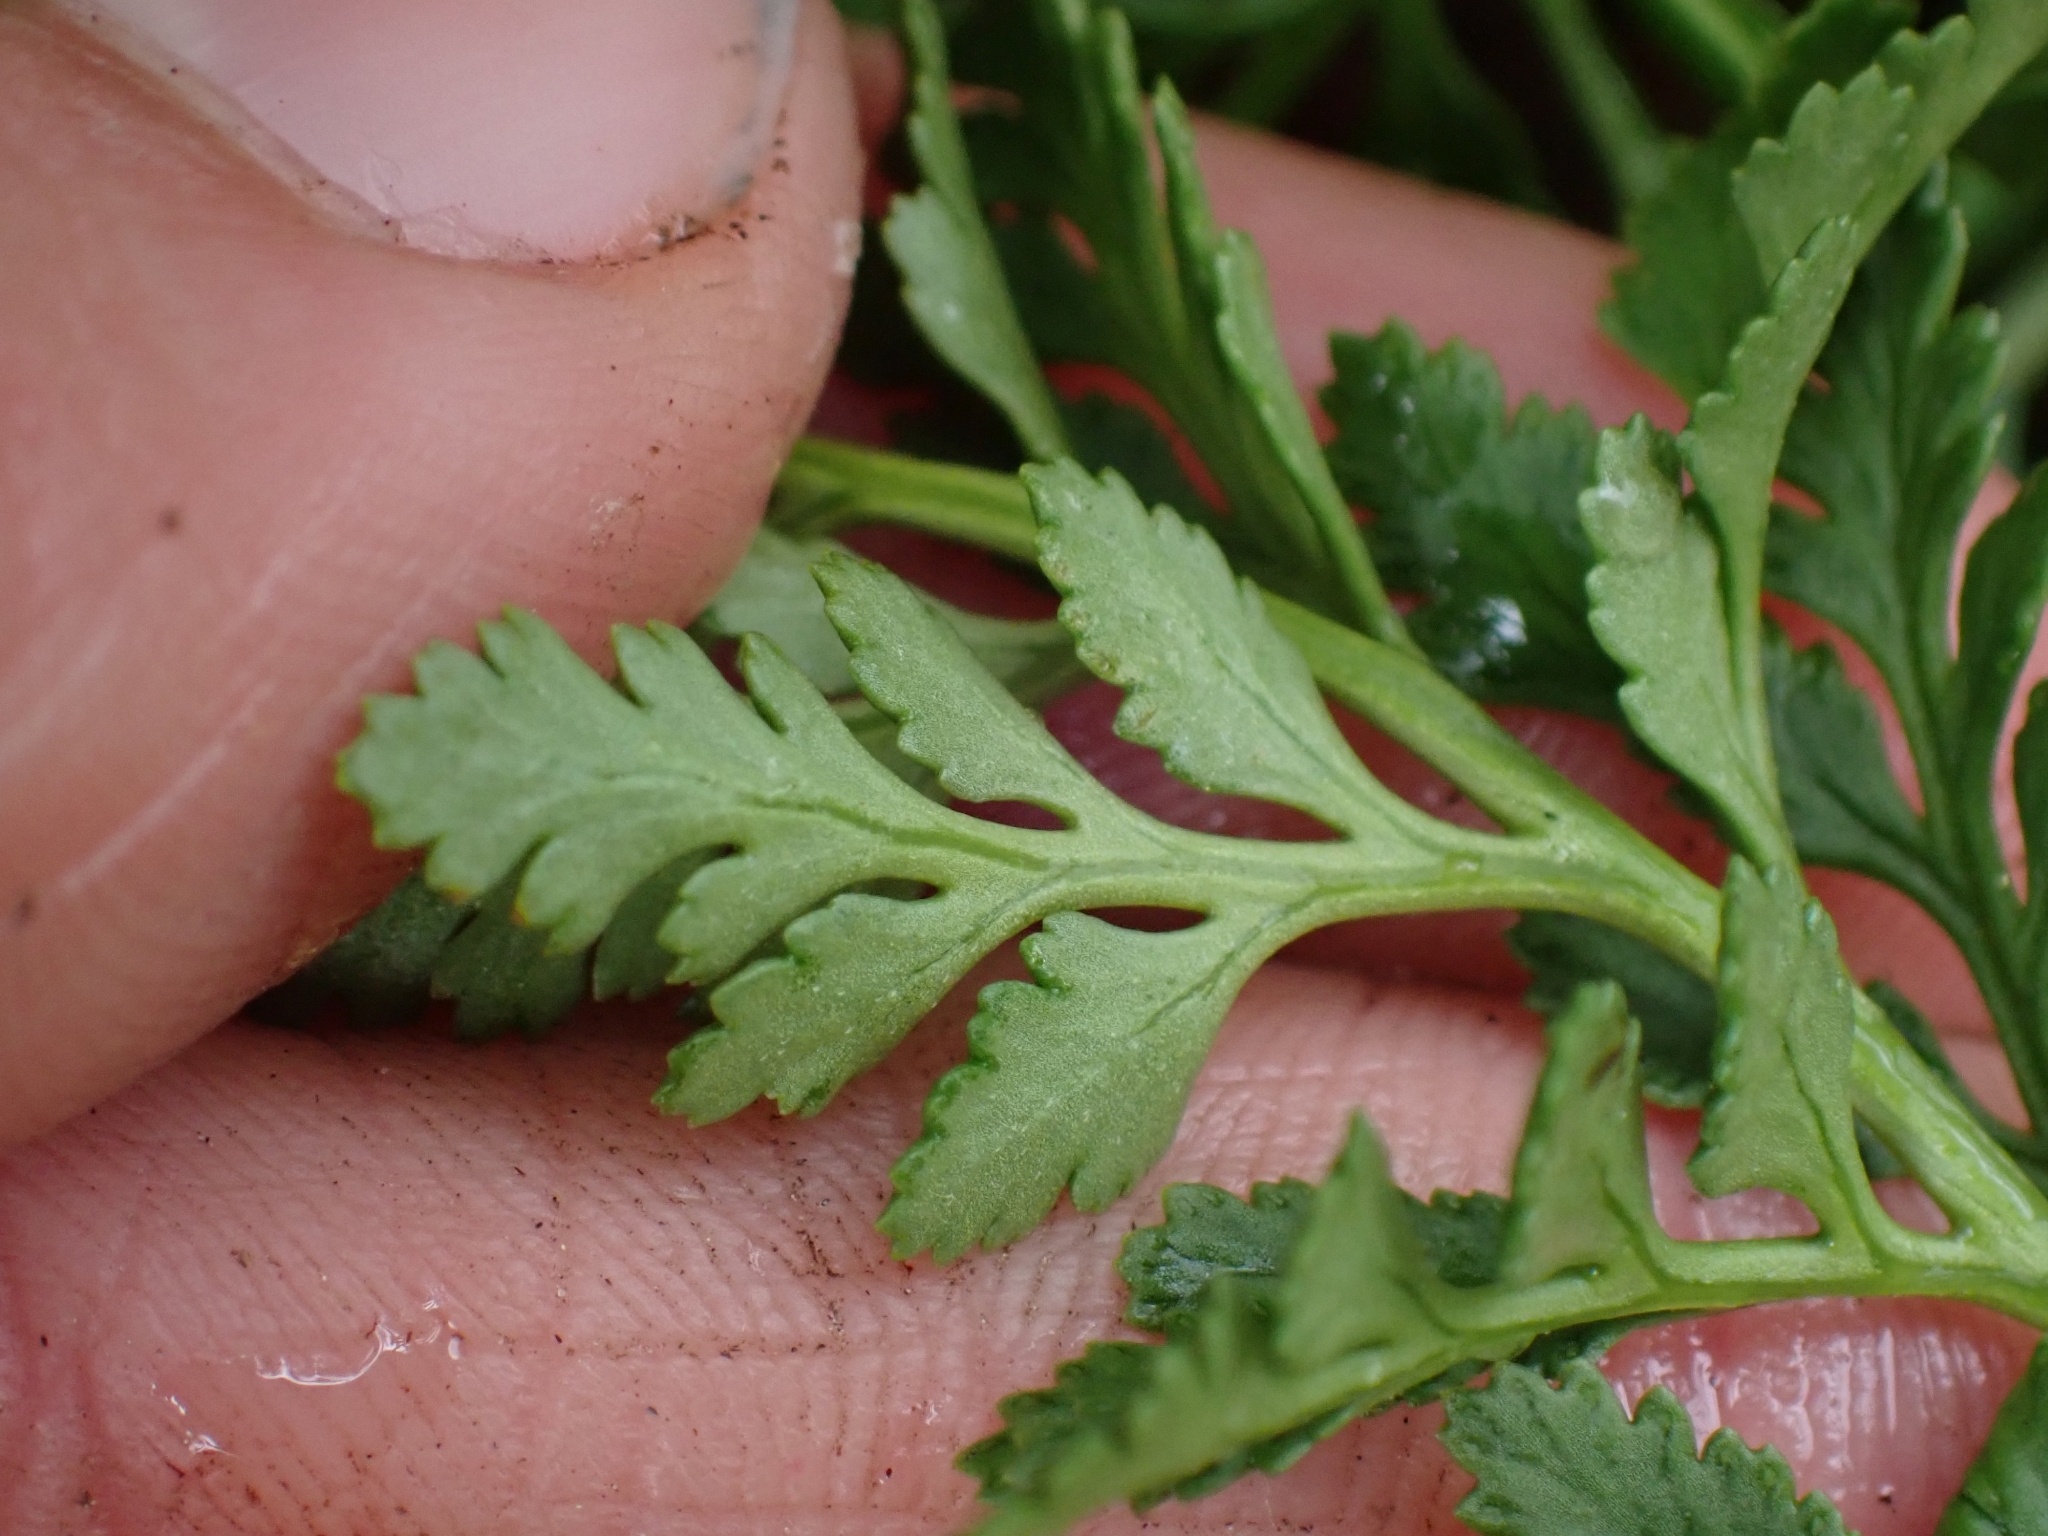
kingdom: Plantae
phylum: Tracheophyta
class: Polypodiopsida
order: Polypodiales
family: Pteridaceae
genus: Cryptogramma
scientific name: Cryptogramma acrostichoides
